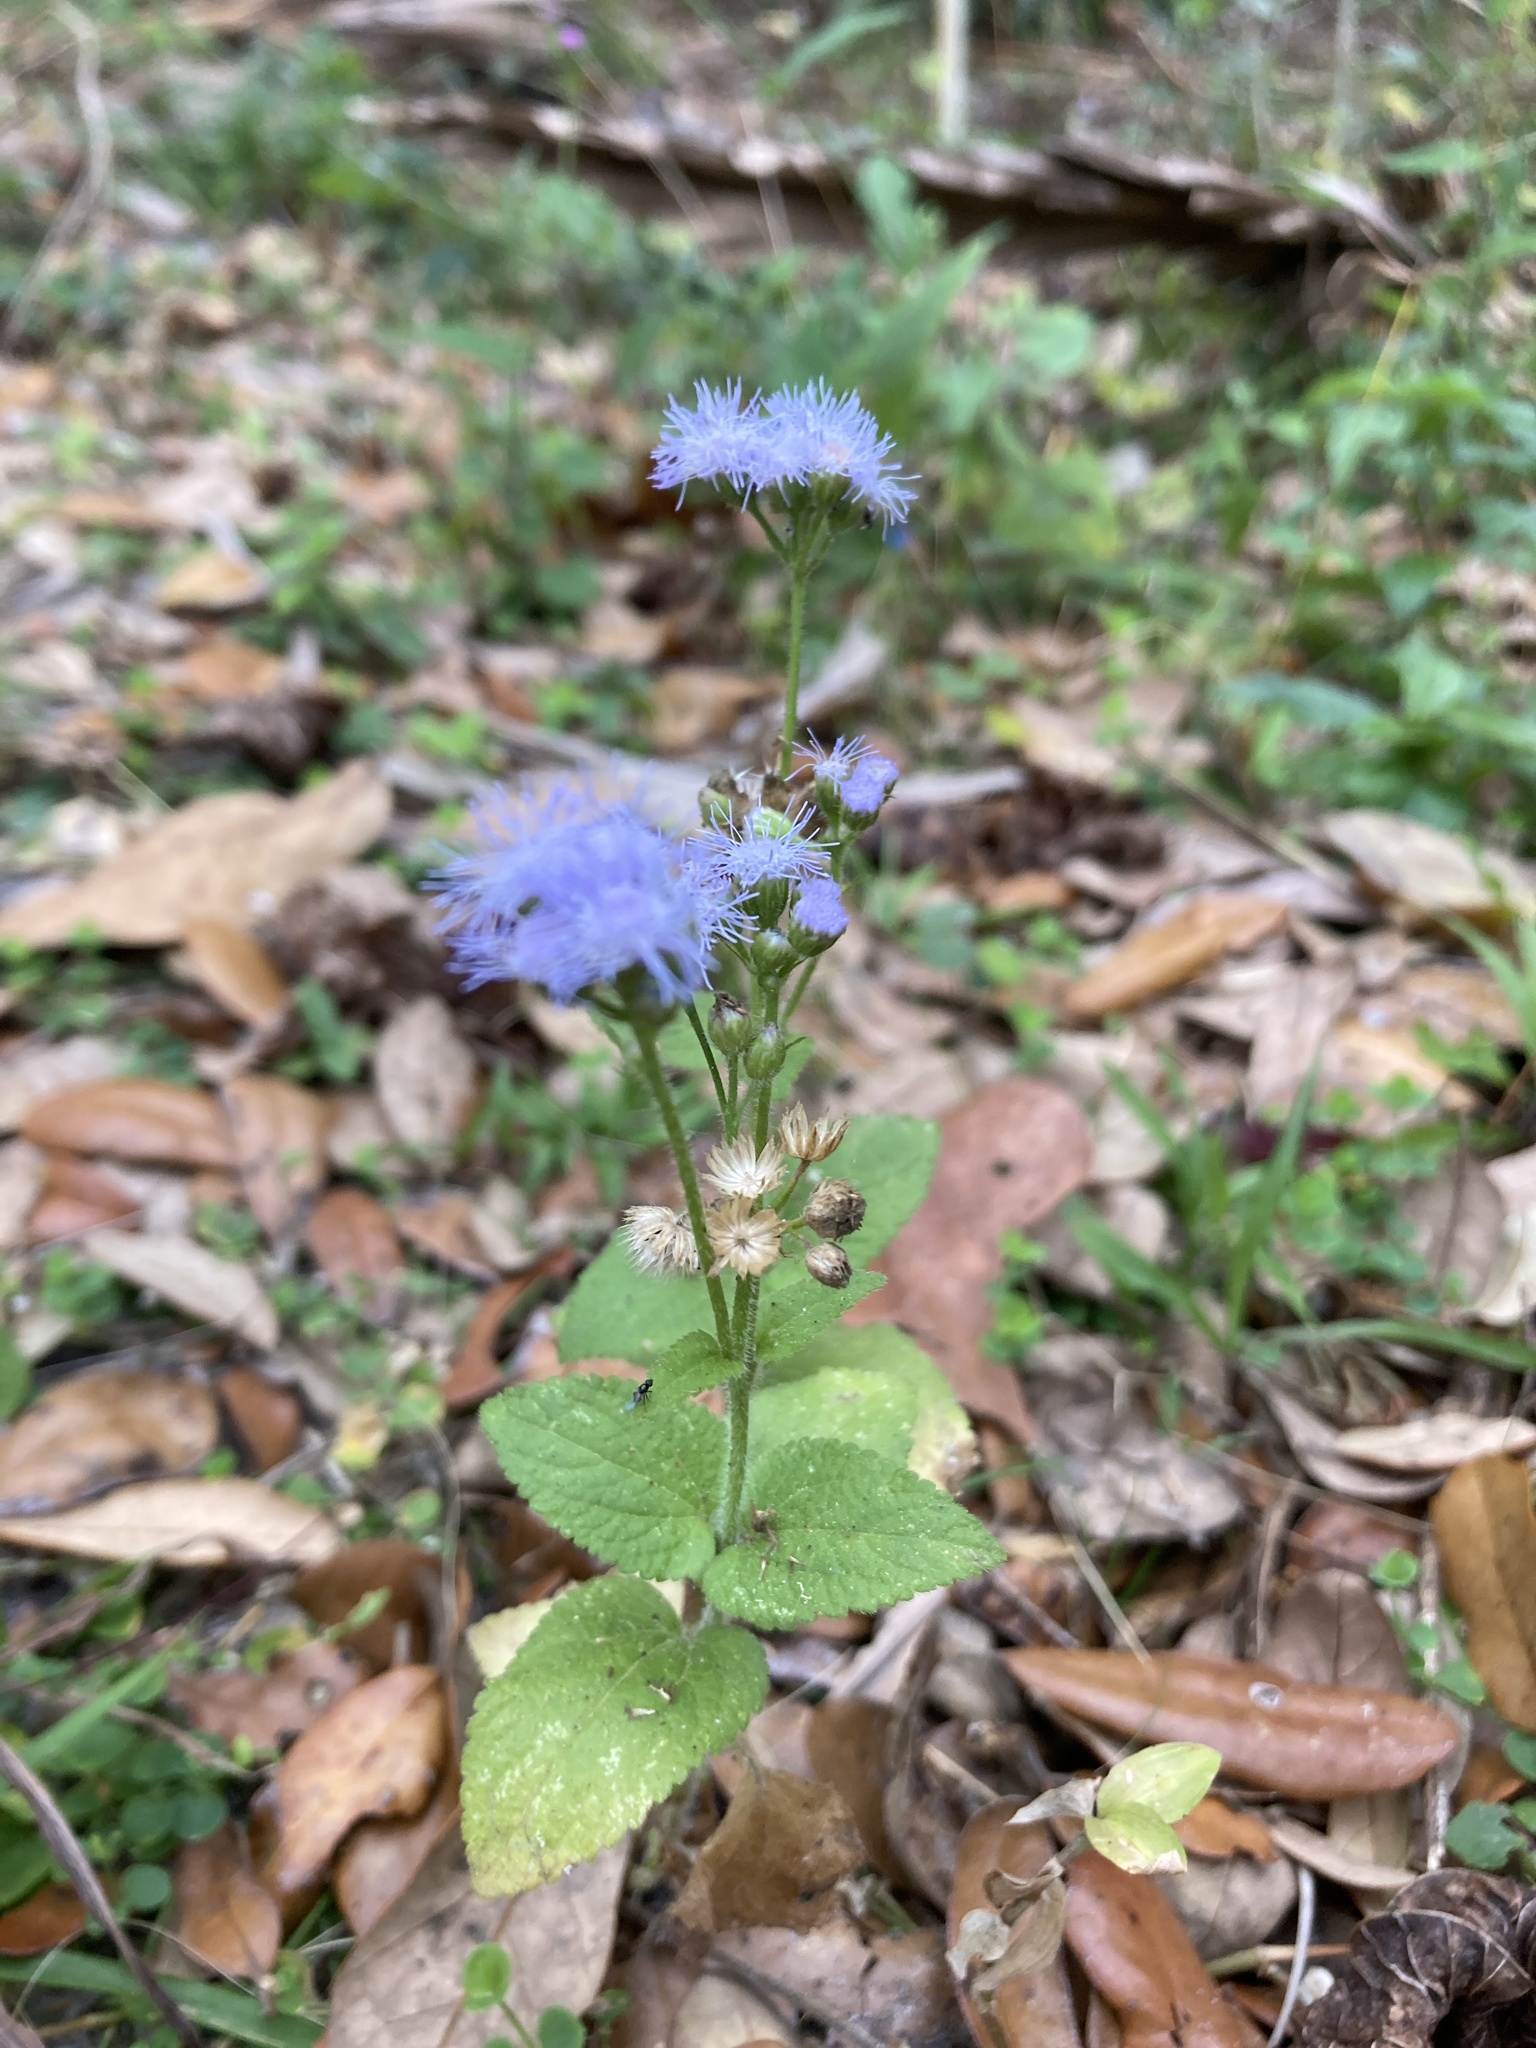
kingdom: Plantae
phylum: Tracheophyta
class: Magnoliopsida
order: Asterales
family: Asteraceae
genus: Ageratum
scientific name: Ageratum houstonianum
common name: Bluemink
